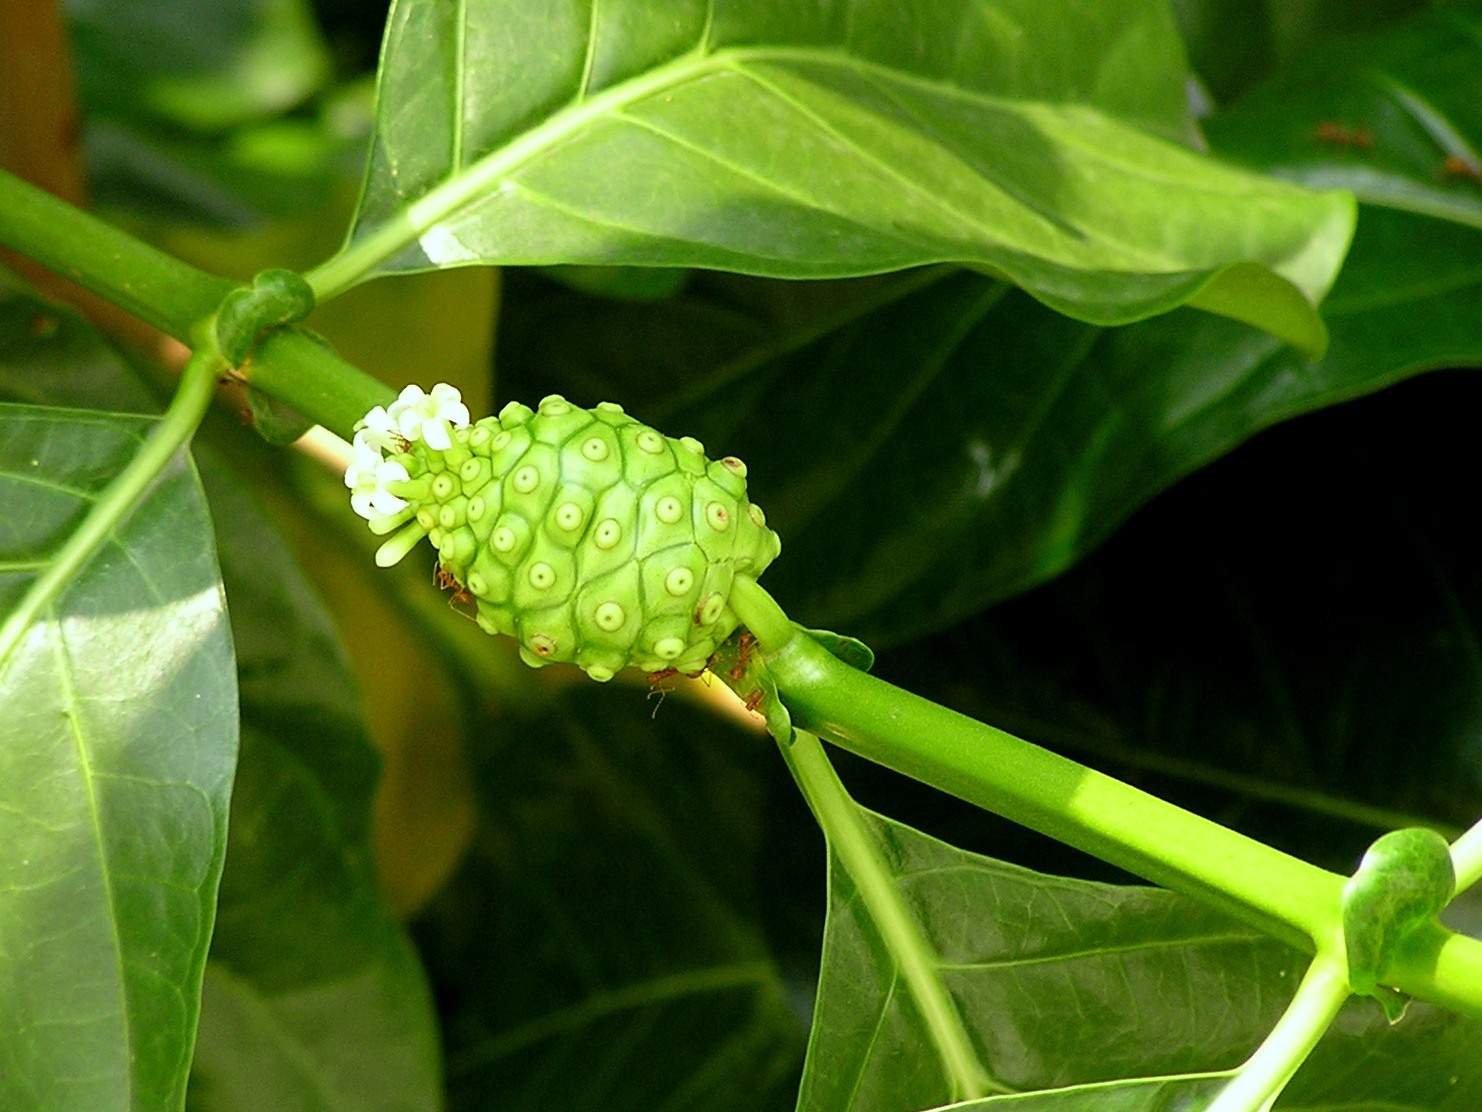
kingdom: Plantae
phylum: Tracheophyta
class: Magnoliopsida
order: Gentianales
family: Rubiaceae
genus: Morinda
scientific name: Morinda citrifolia
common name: Indian-mulberry
